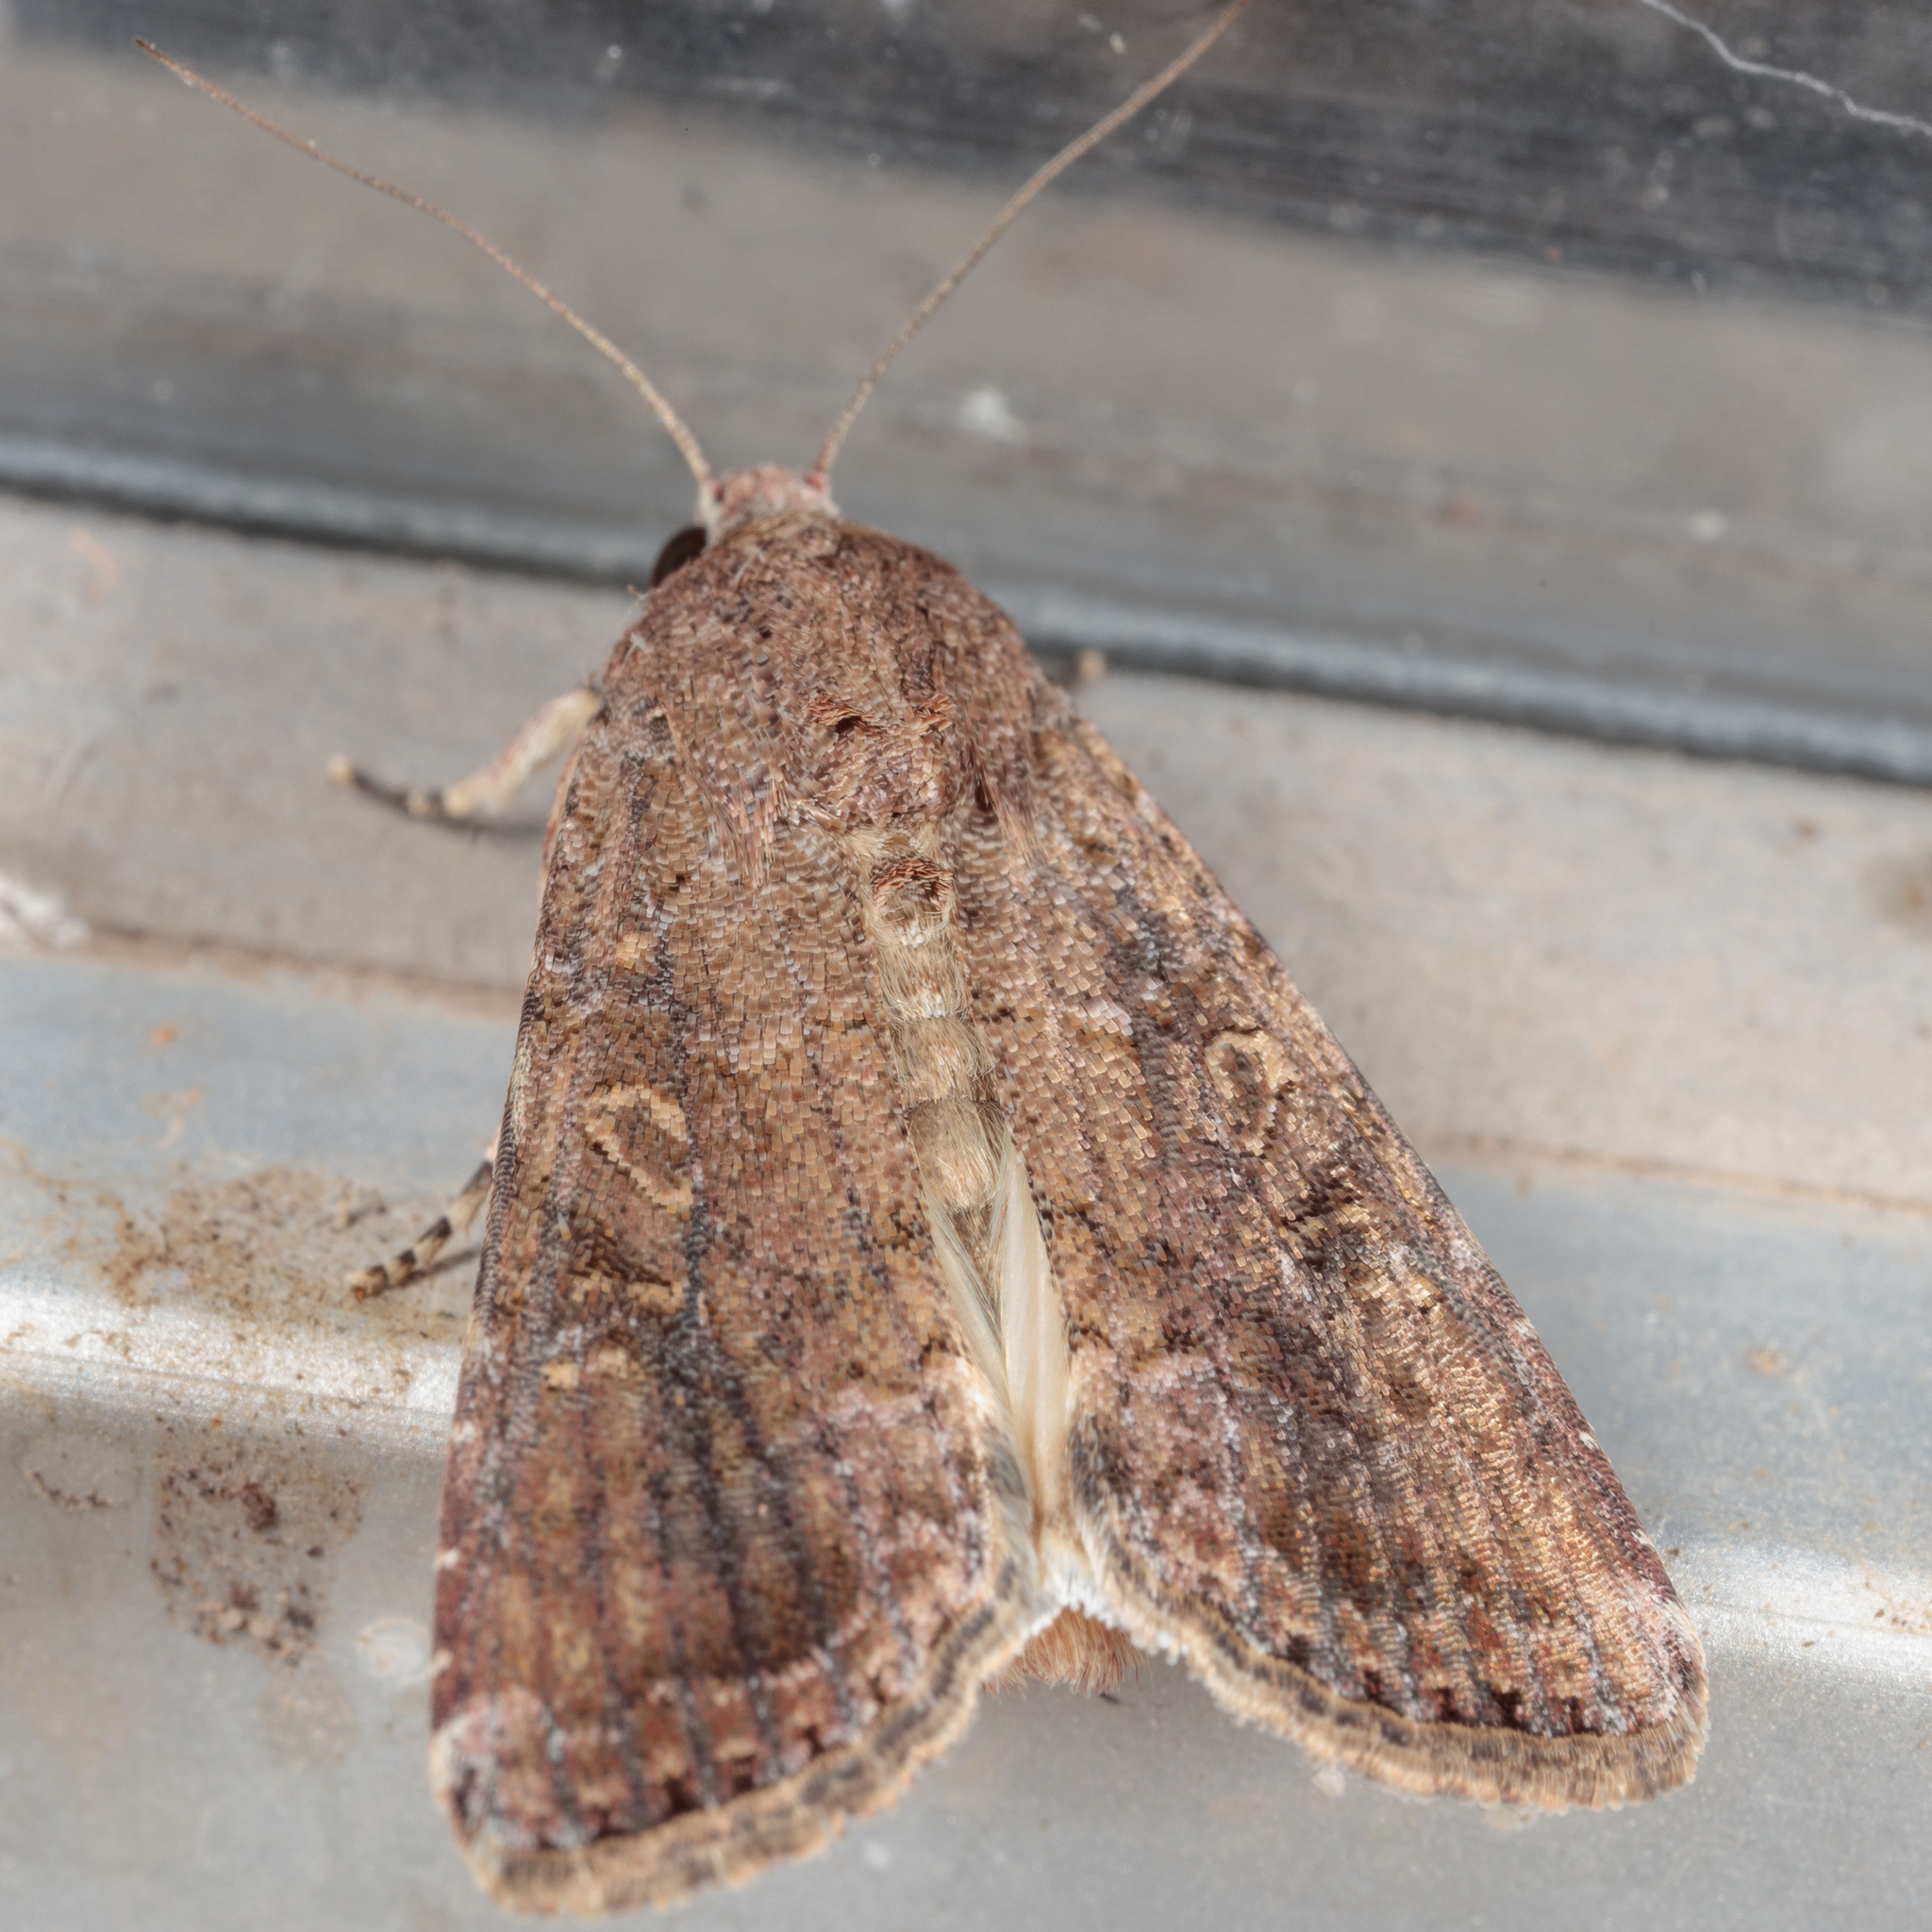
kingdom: Animalia
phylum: Arthropoda
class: Insecta
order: Lepidoptera
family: Noctuidae
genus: Spodoptera
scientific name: Spodoptera frugiperda
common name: Fall armyworm
